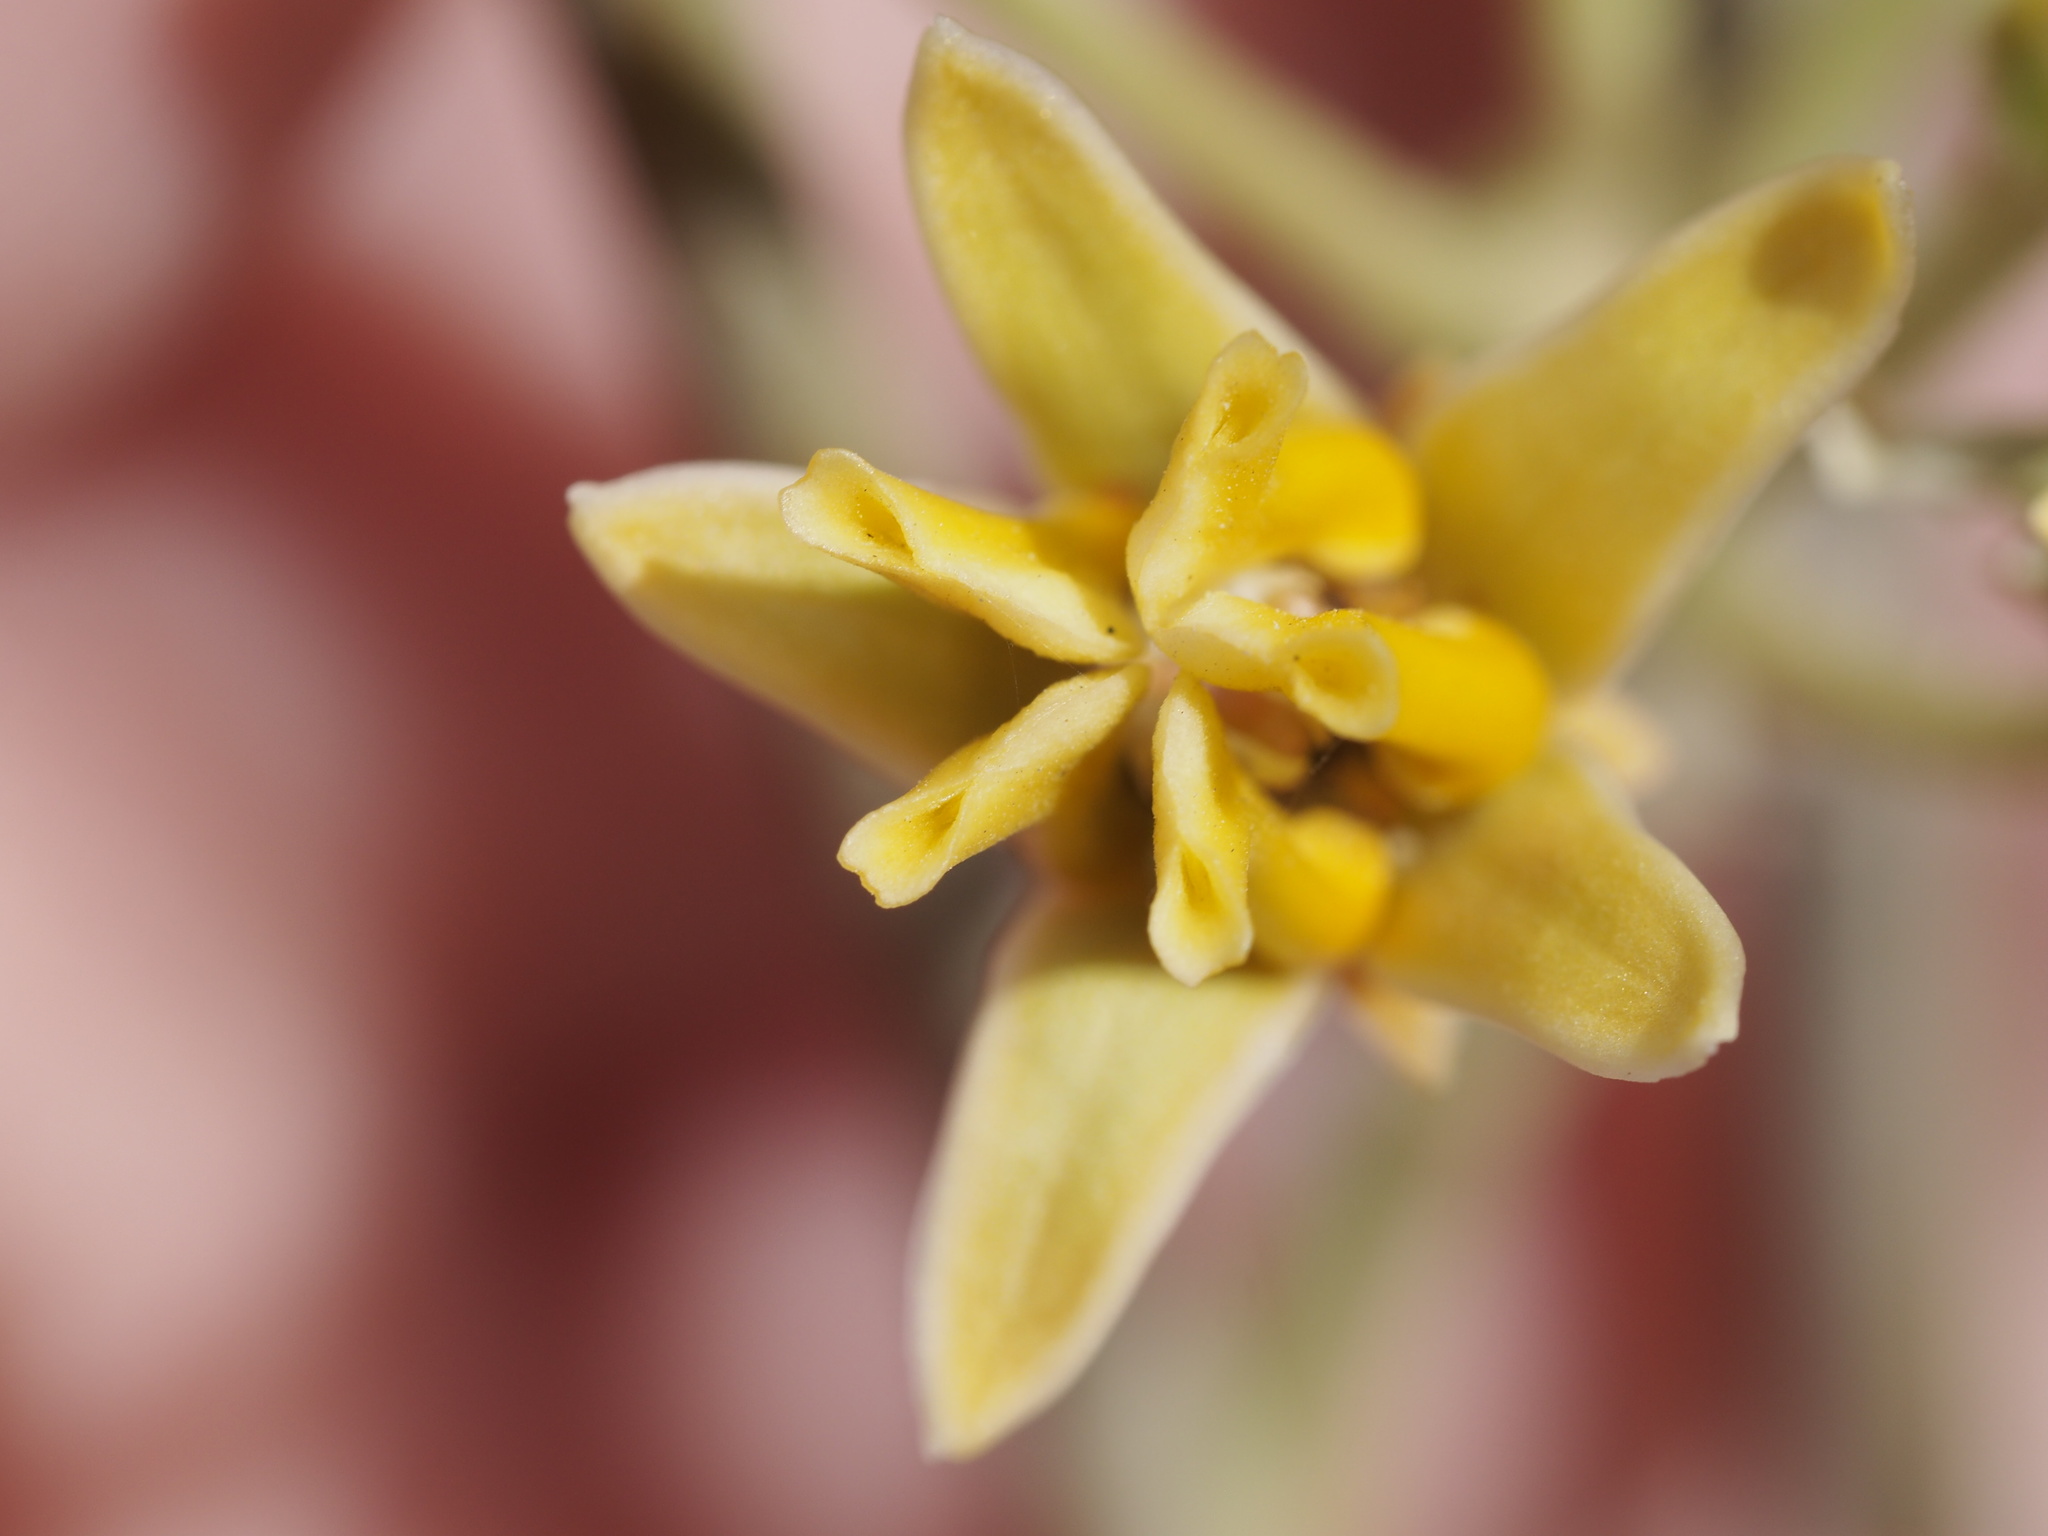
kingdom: Plantae
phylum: Tracheophyta
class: Magnoliopsida
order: Gentianales
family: Apocynaceae
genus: Asclepias
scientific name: Asclepias subulata
